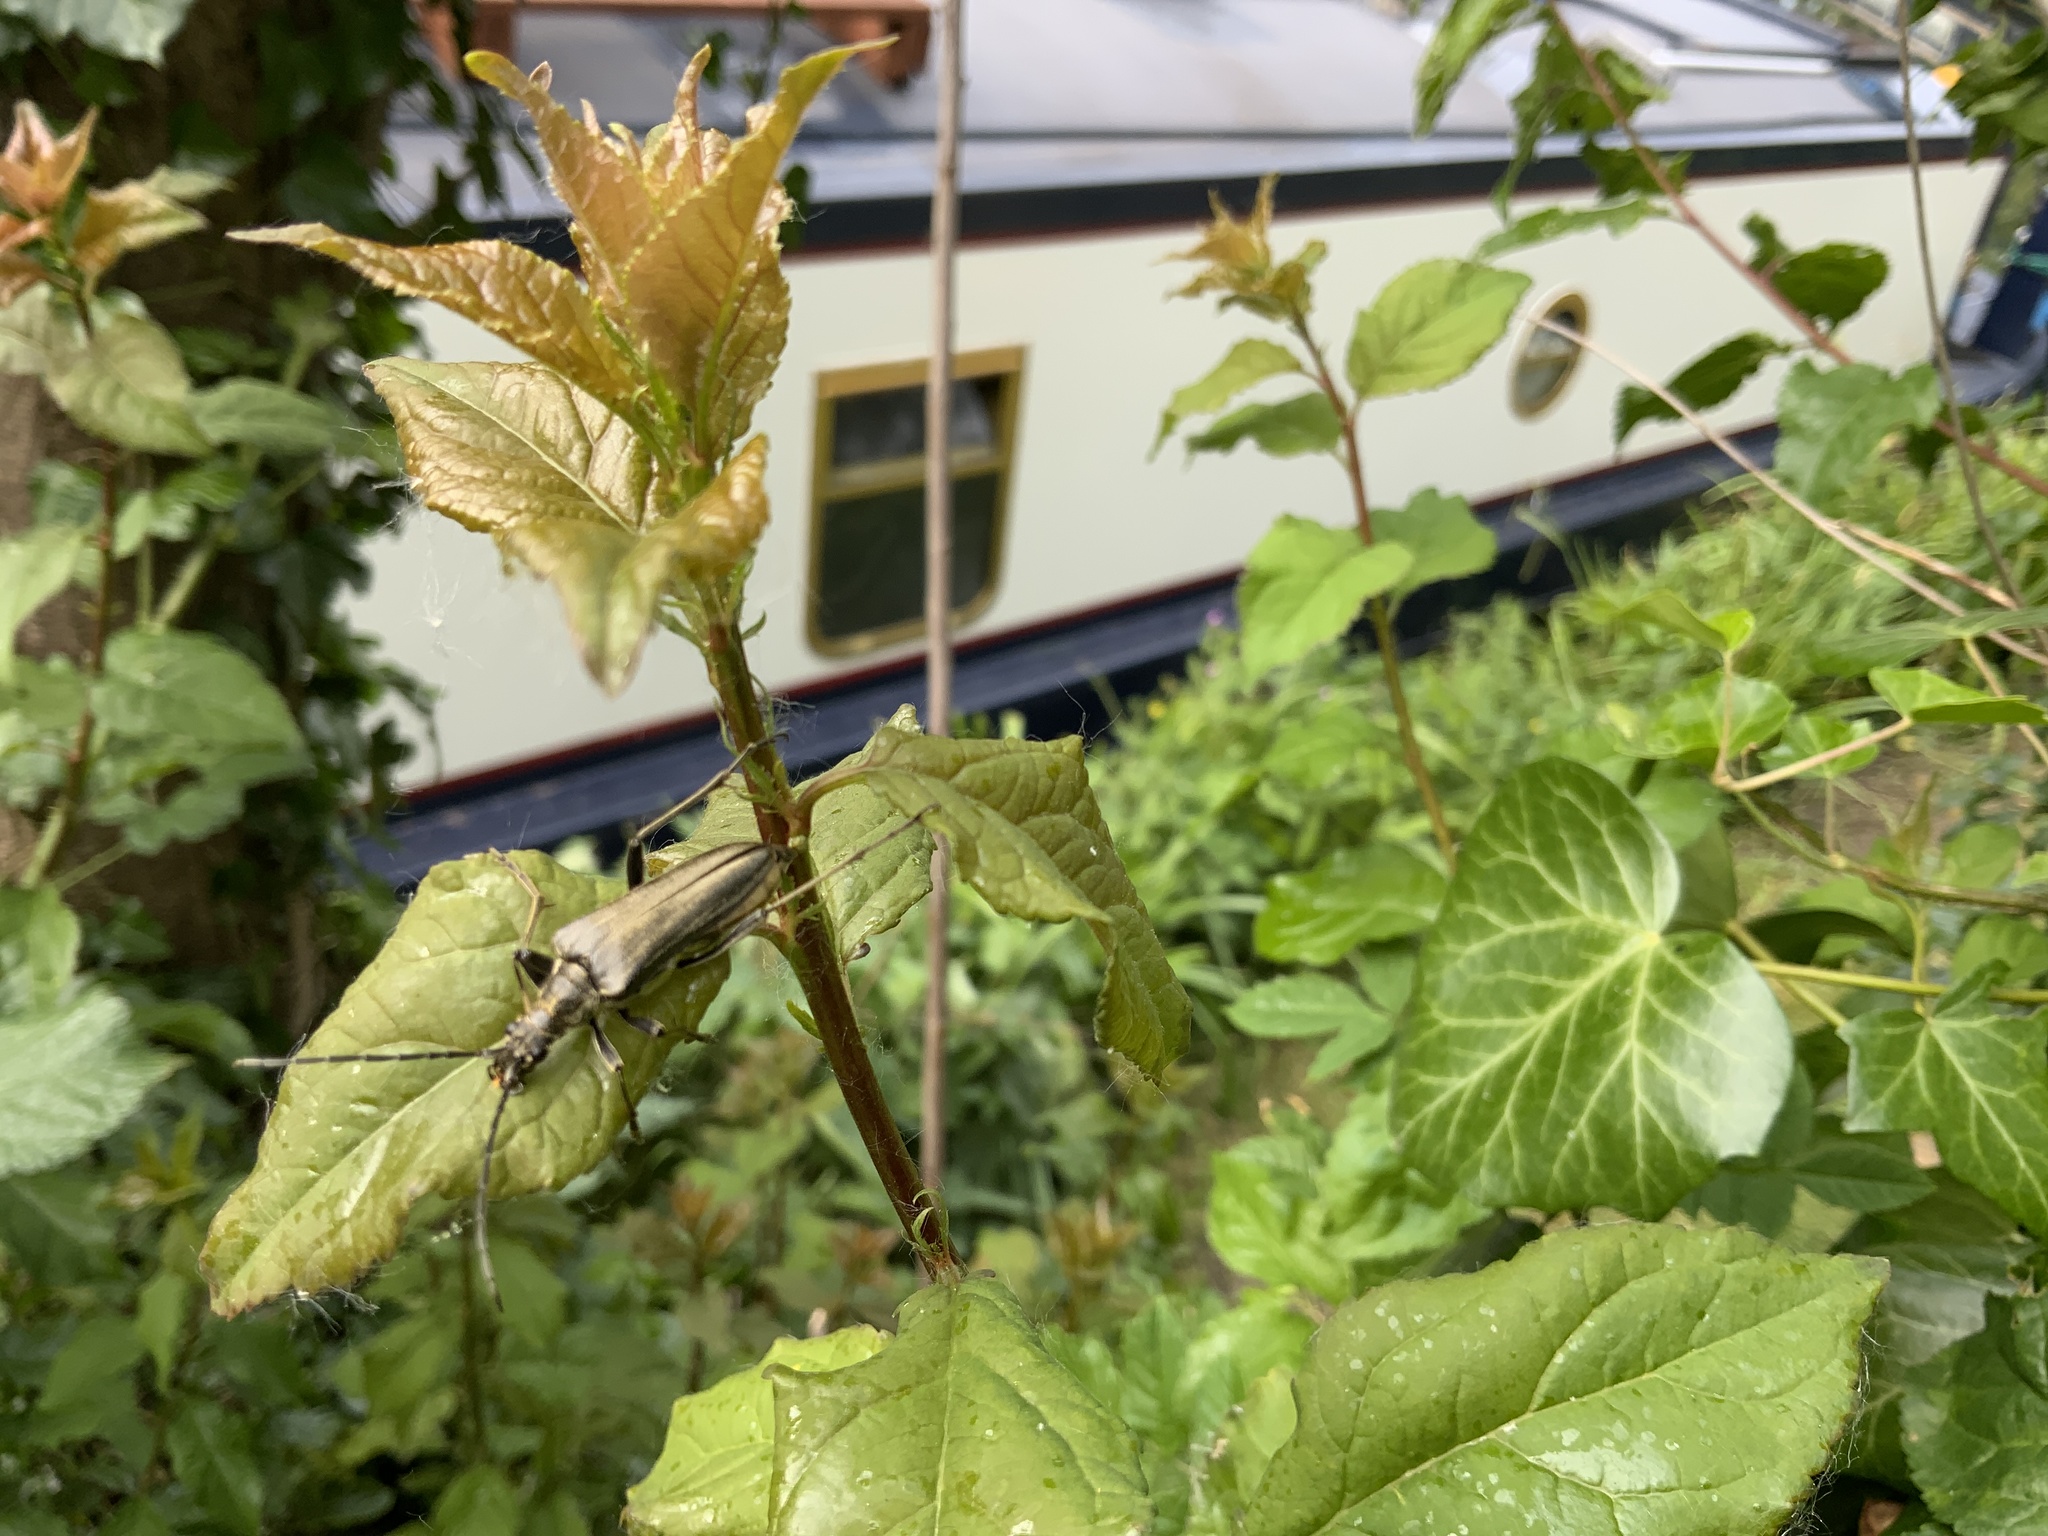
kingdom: Animalia
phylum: Arthropoda
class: Insecta
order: Coleoptera
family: Cerambycidae
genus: Stenocorus
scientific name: Stenocorus meridianus
